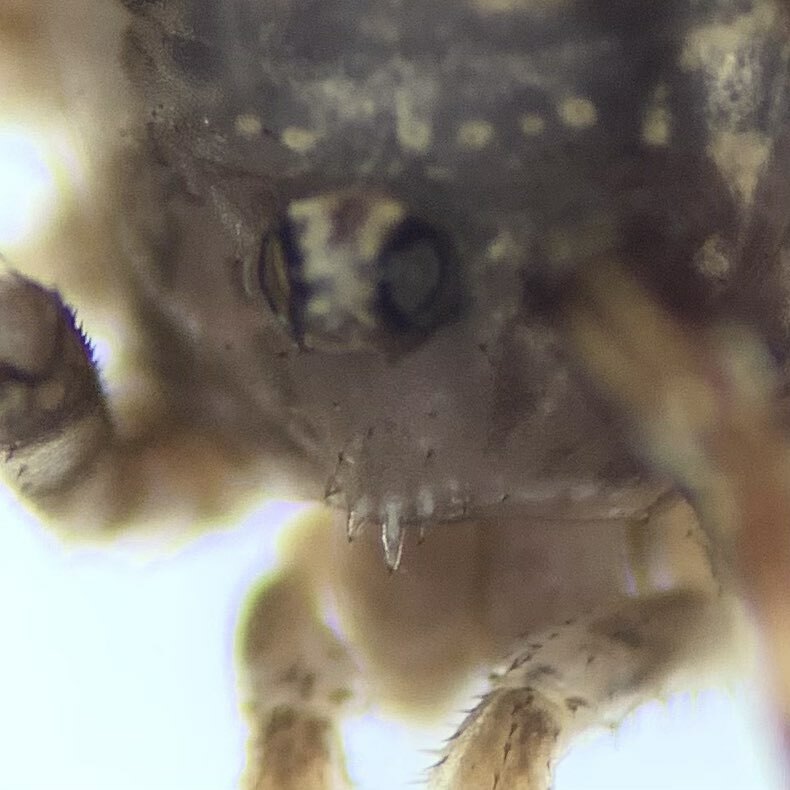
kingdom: Animalia
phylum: Arthropoda
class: Arachnida
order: Opiliones
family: Phalangiidae
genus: Oligolophus
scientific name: Oligolophus hansenii
